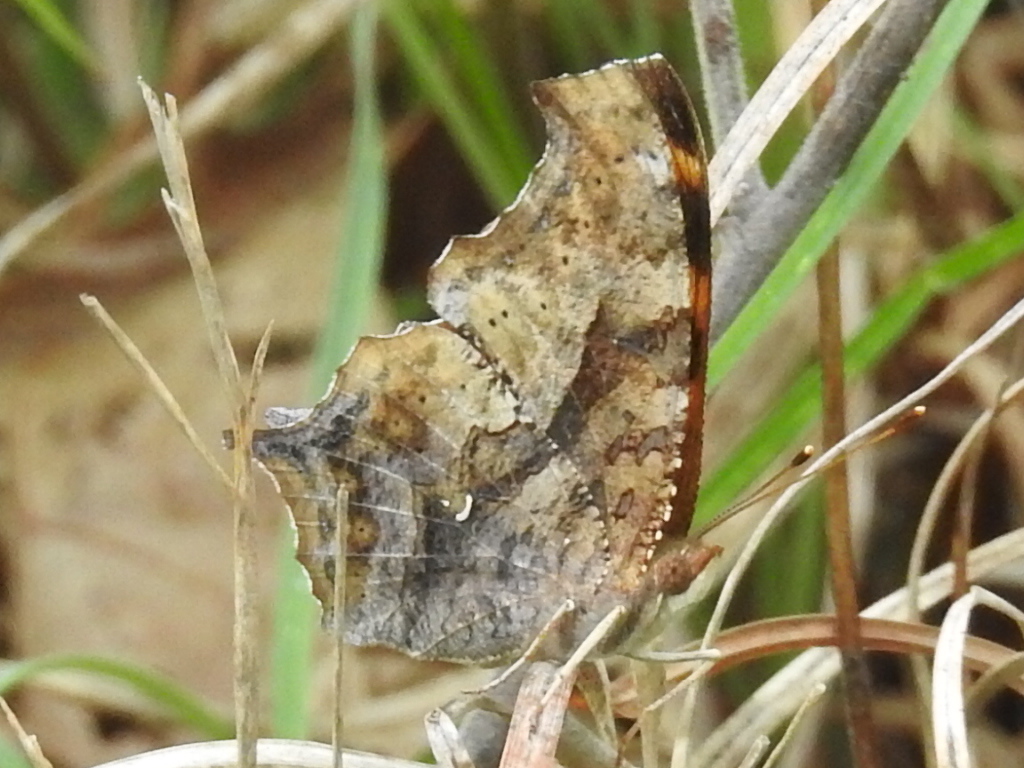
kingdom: Animalia
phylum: Arthropoda
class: Insecta
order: Lepidoptera
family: Nymphalidae
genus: Polygonia
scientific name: Polygonia interrogationis
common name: Question mark
